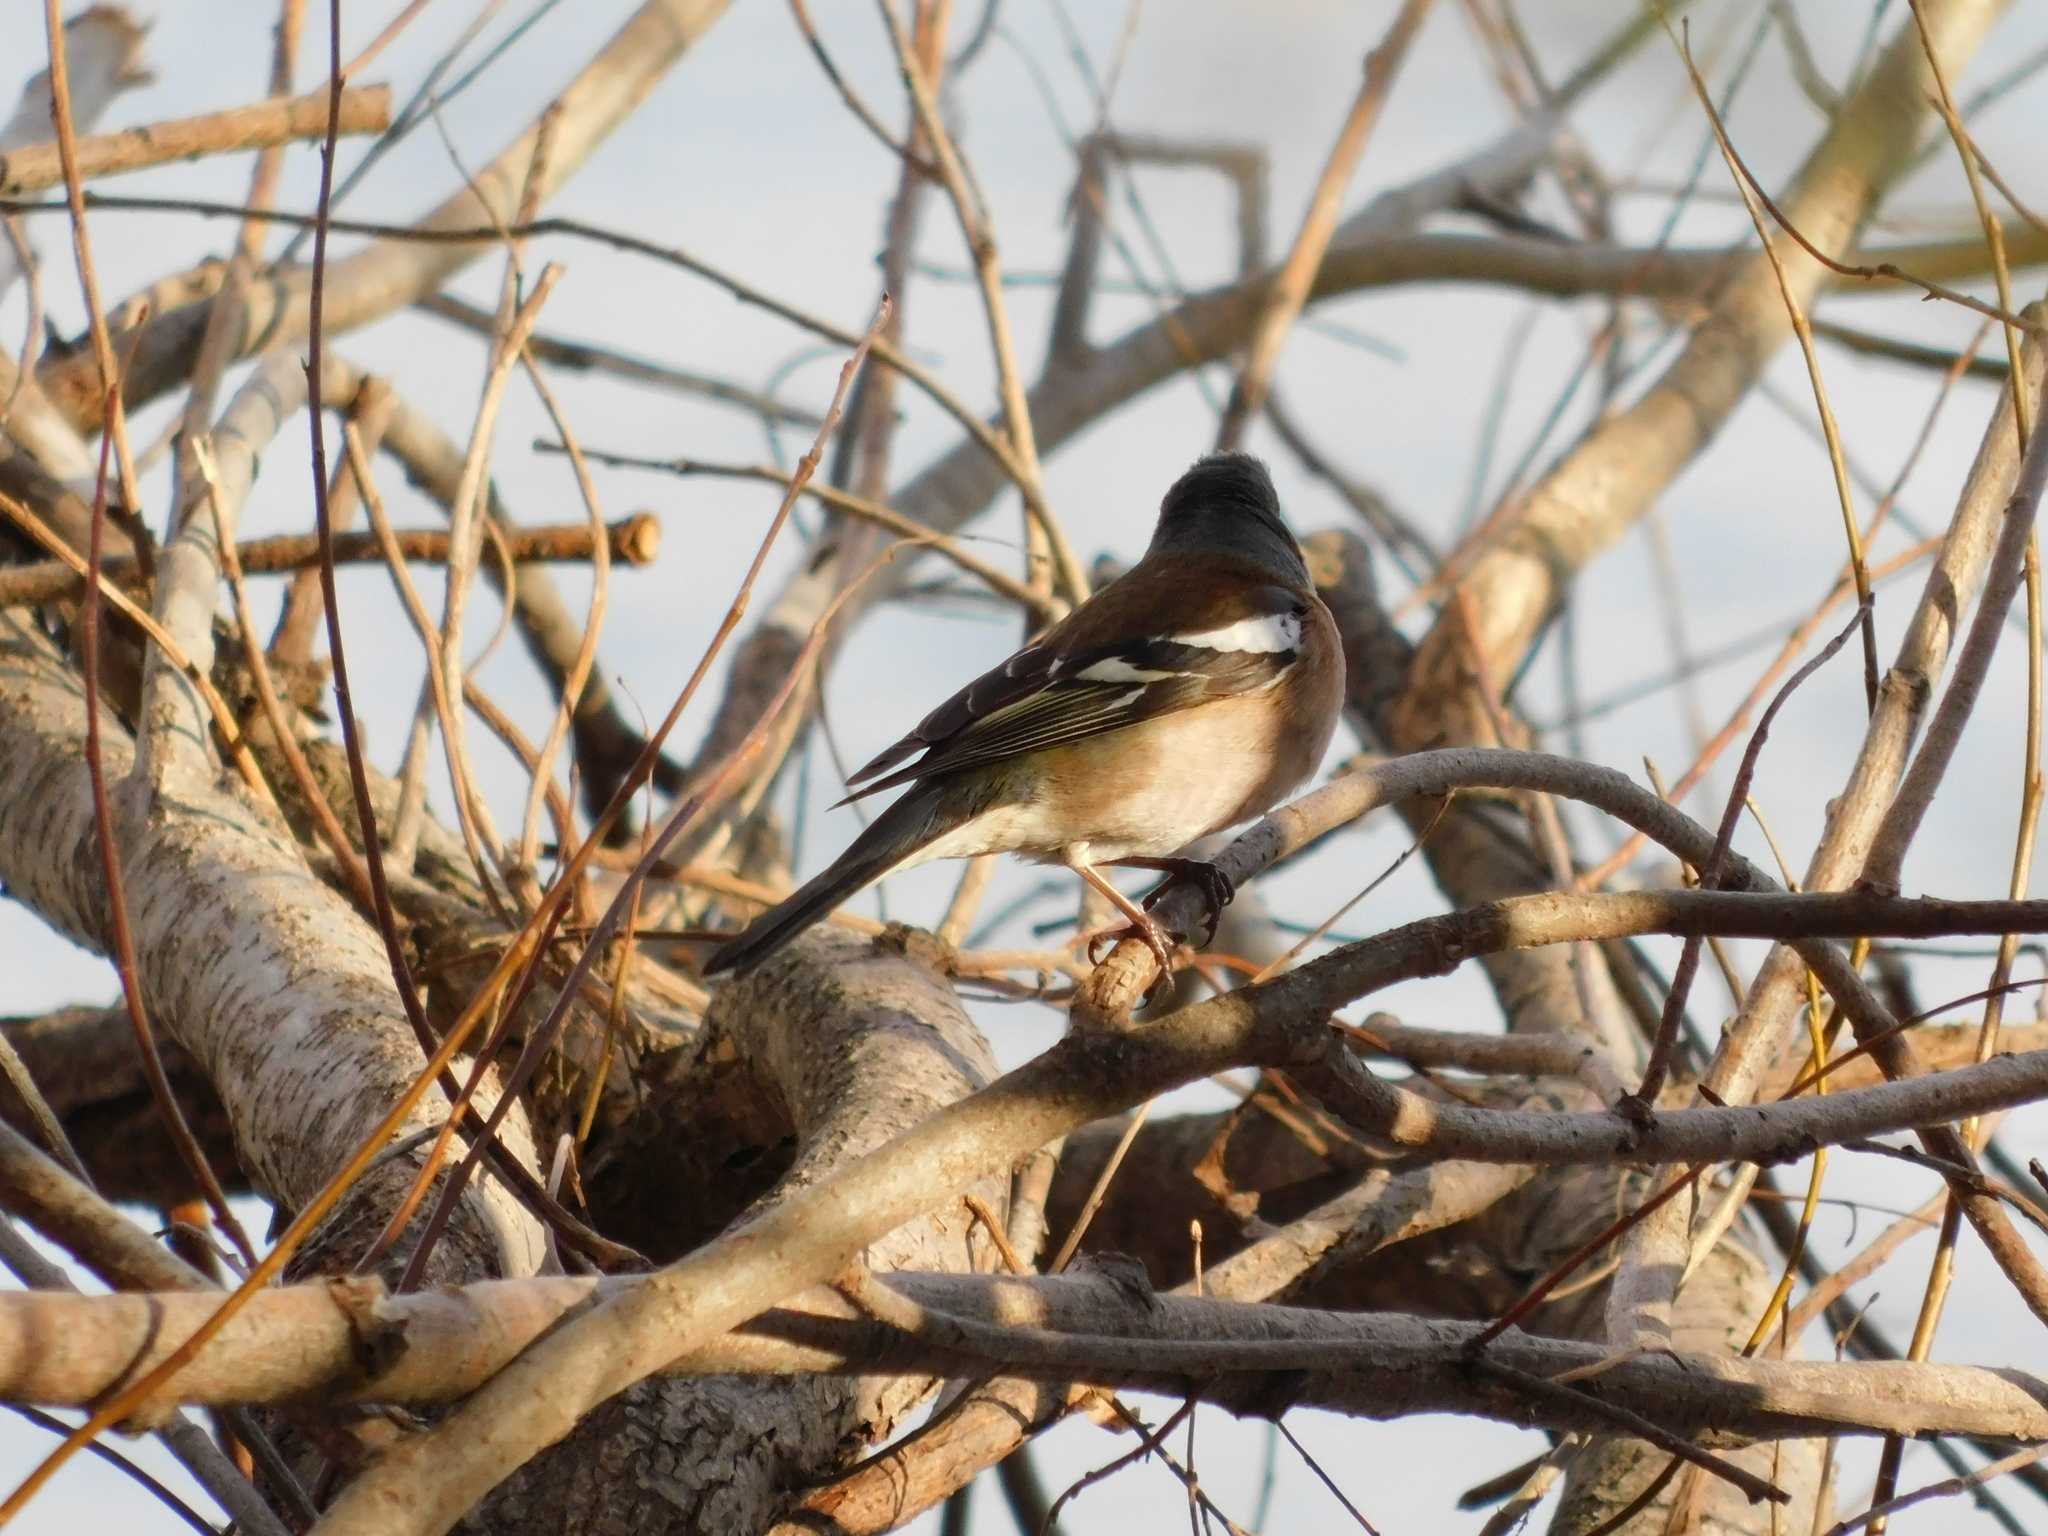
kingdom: Animalia
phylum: Chordata
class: Aves
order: Passeriformes
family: Fringillidae
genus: Fringilla
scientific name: Fringilla coelebs
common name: Common chaffinch
